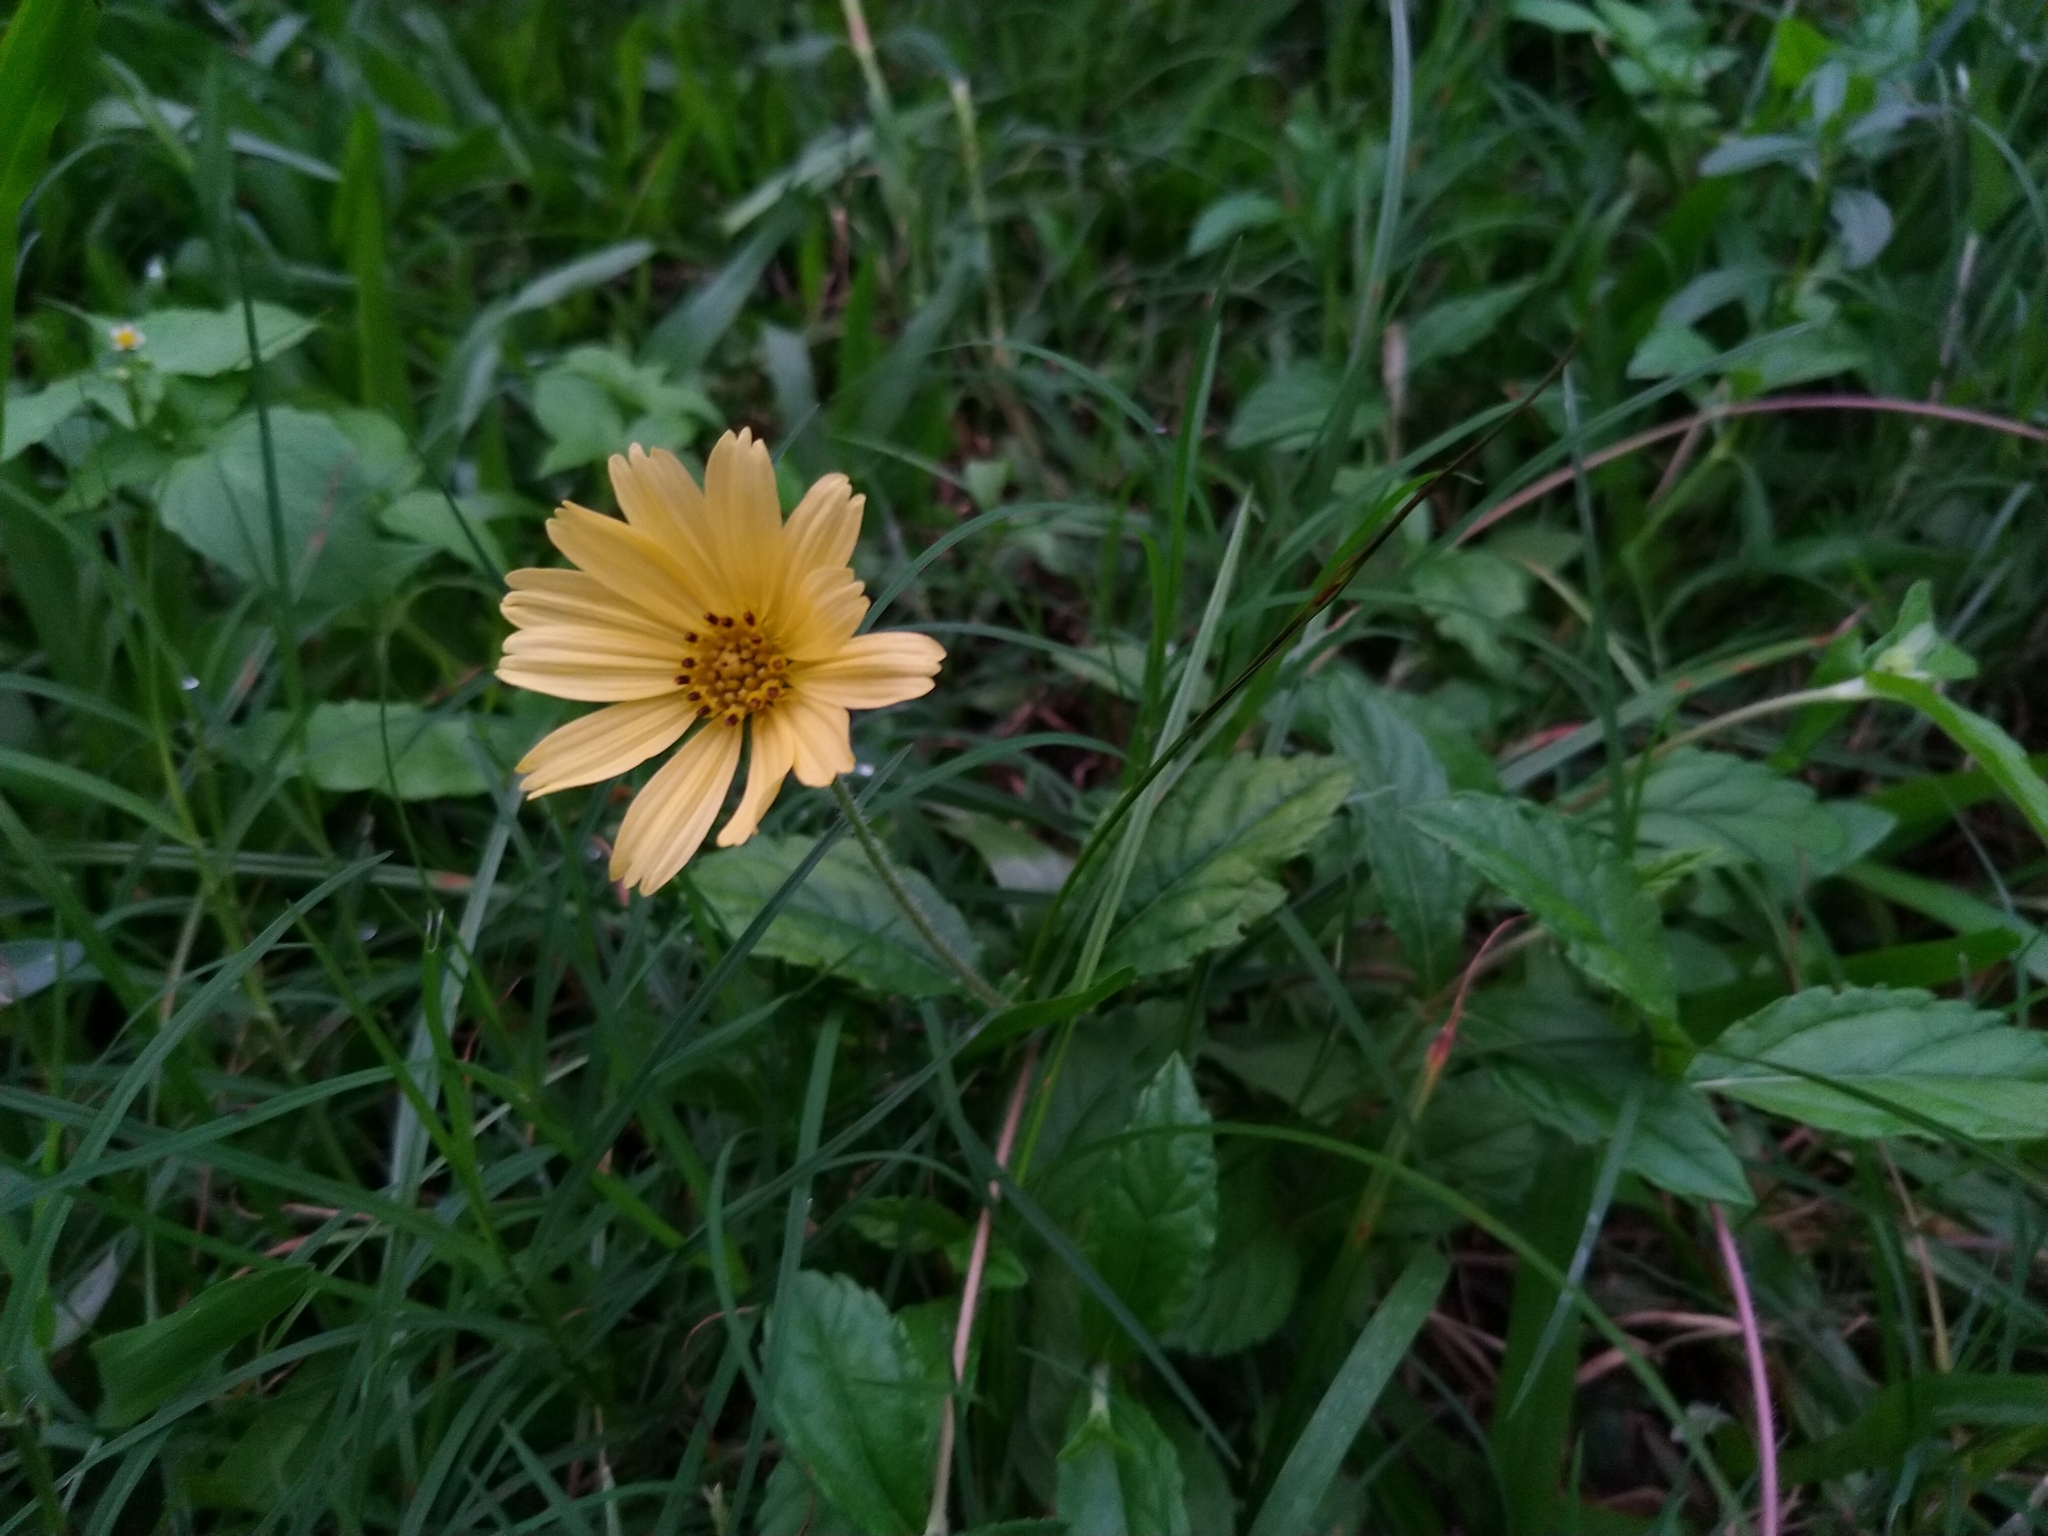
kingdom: Plantae
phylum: Tracheophyta
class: Magnoliopsida
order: Asterales
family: Asteraceae
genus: Sphagneticola
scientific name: Sphagneticola trilobata
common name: Bay biscayne creeping-oxeye
